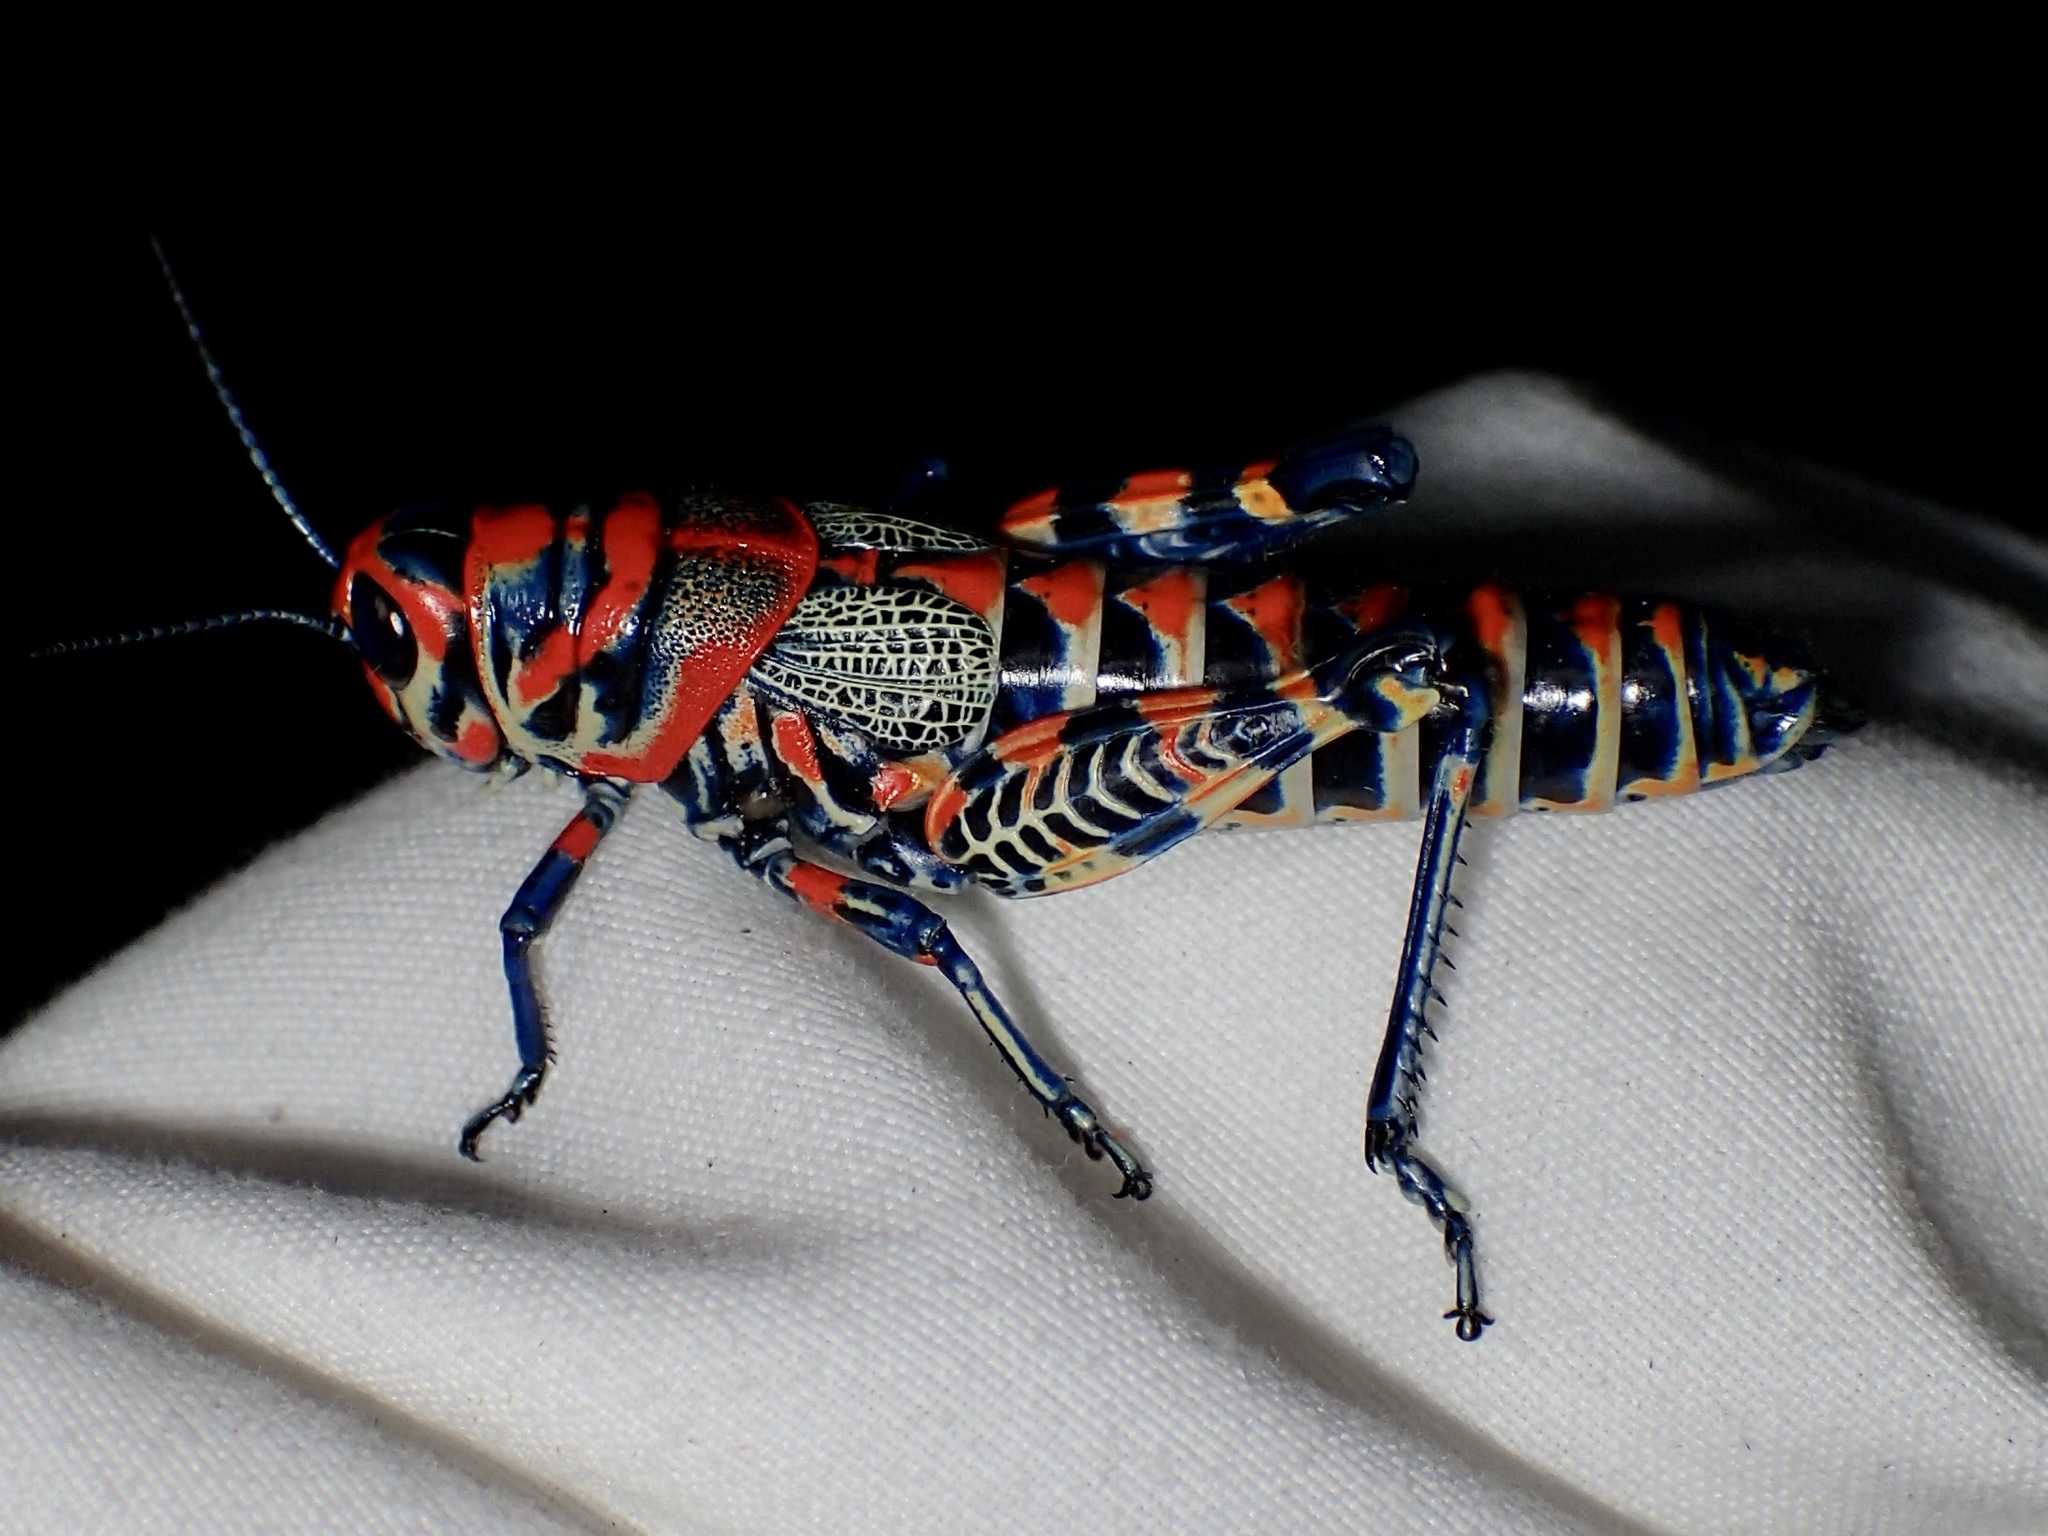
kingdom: Animalia
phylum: Arthropoda
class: Insecta
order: Orthoptera
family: Acrididae
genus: Dactylotum
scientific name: Dactylotum bicolor
